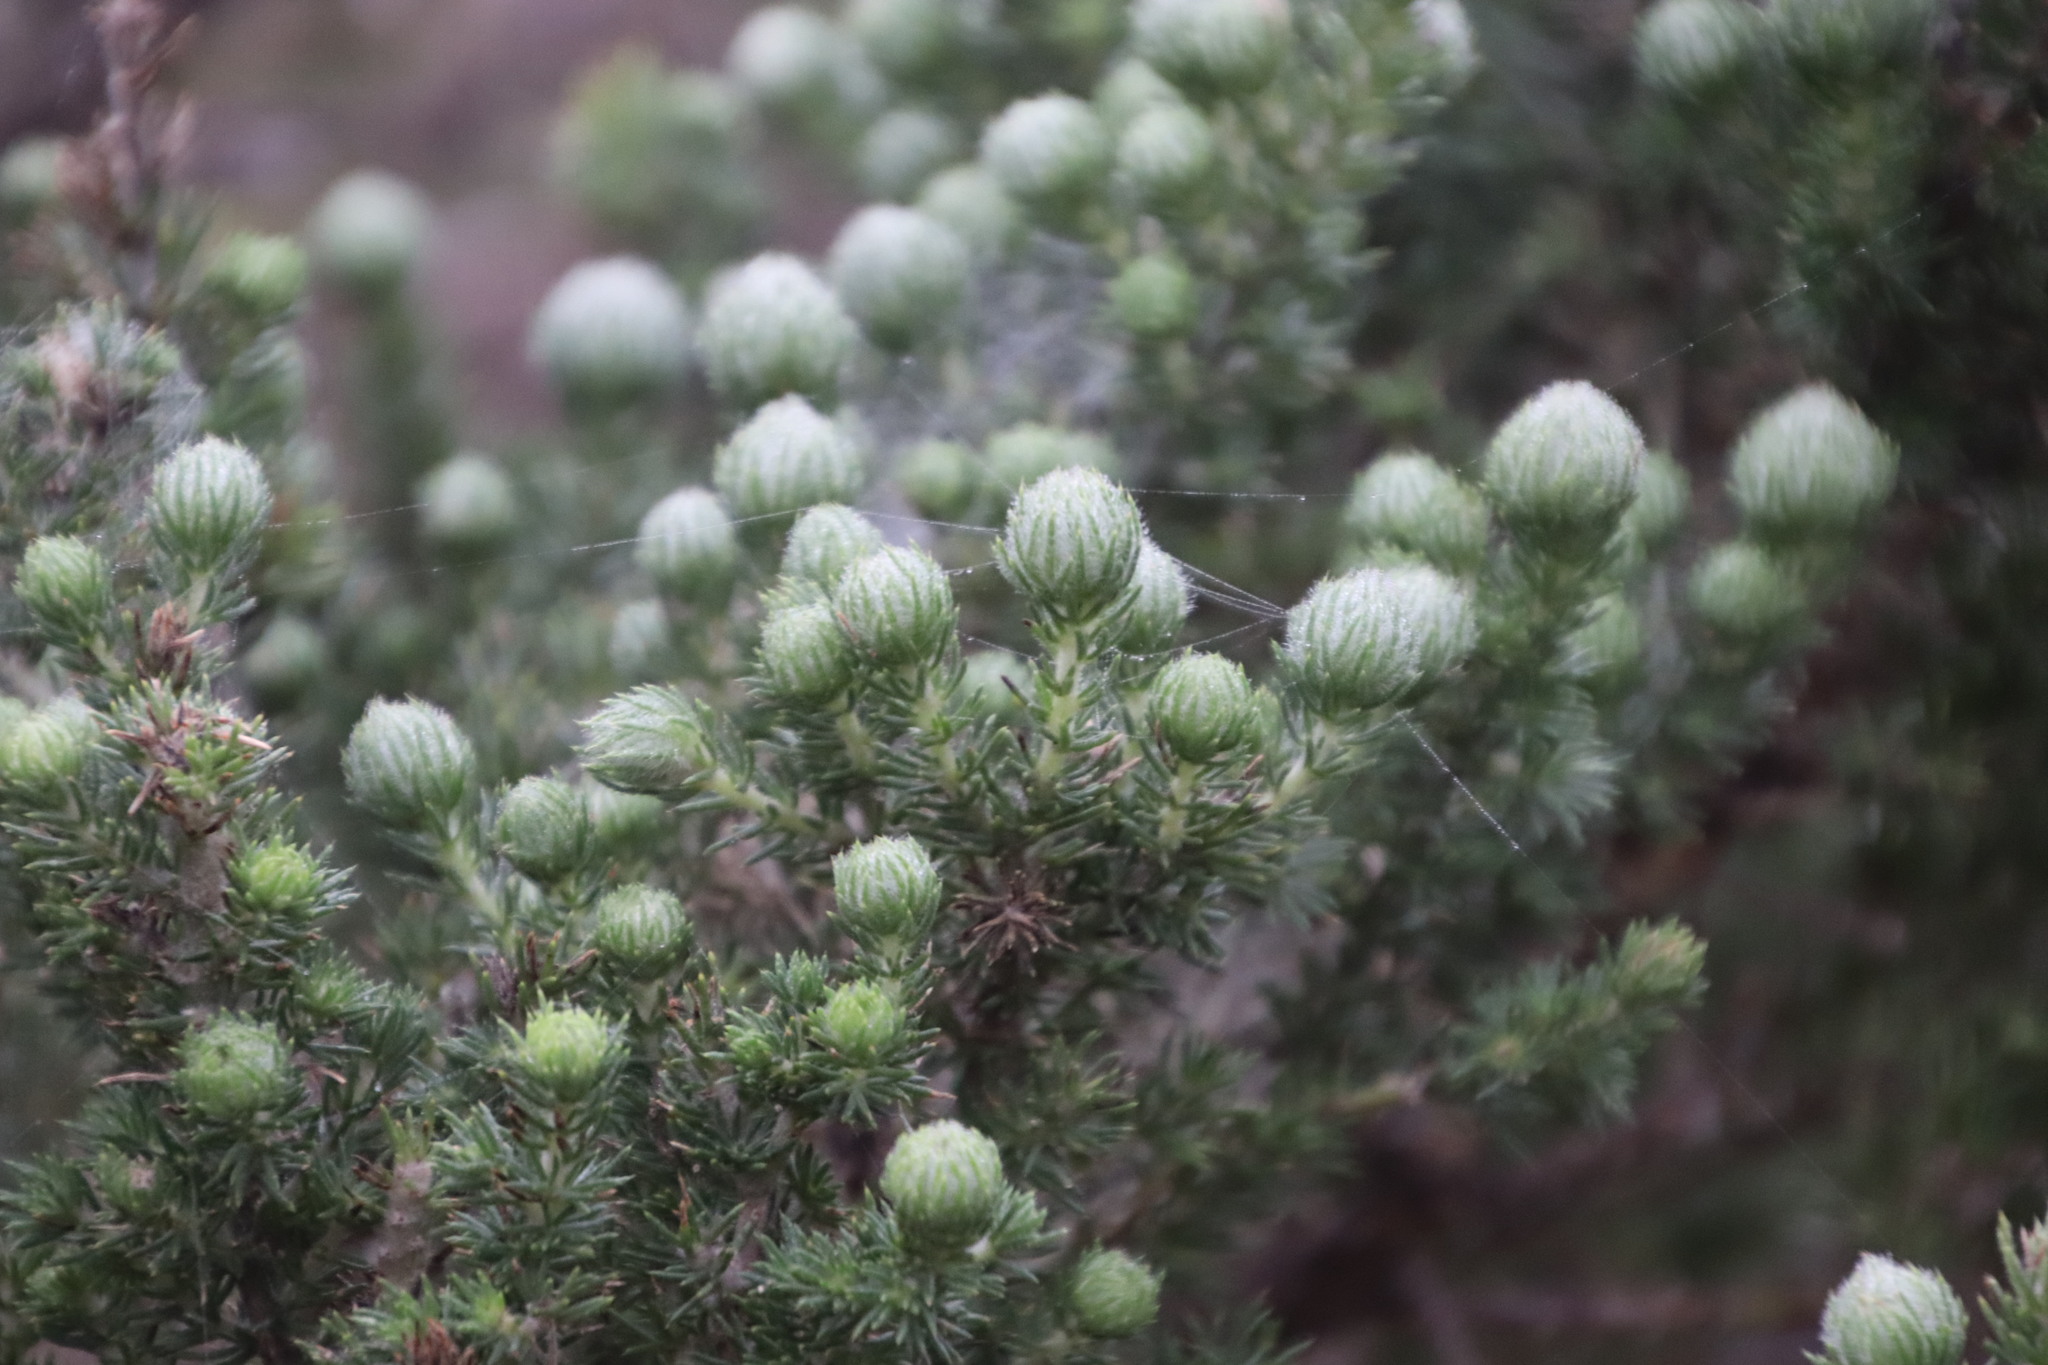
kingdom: Plantae
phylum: Tracheophyta
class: Magnoliopsida
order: Fabales
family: Fabaceae
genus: Aspalathus
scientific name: Aspalathus chenopoda
